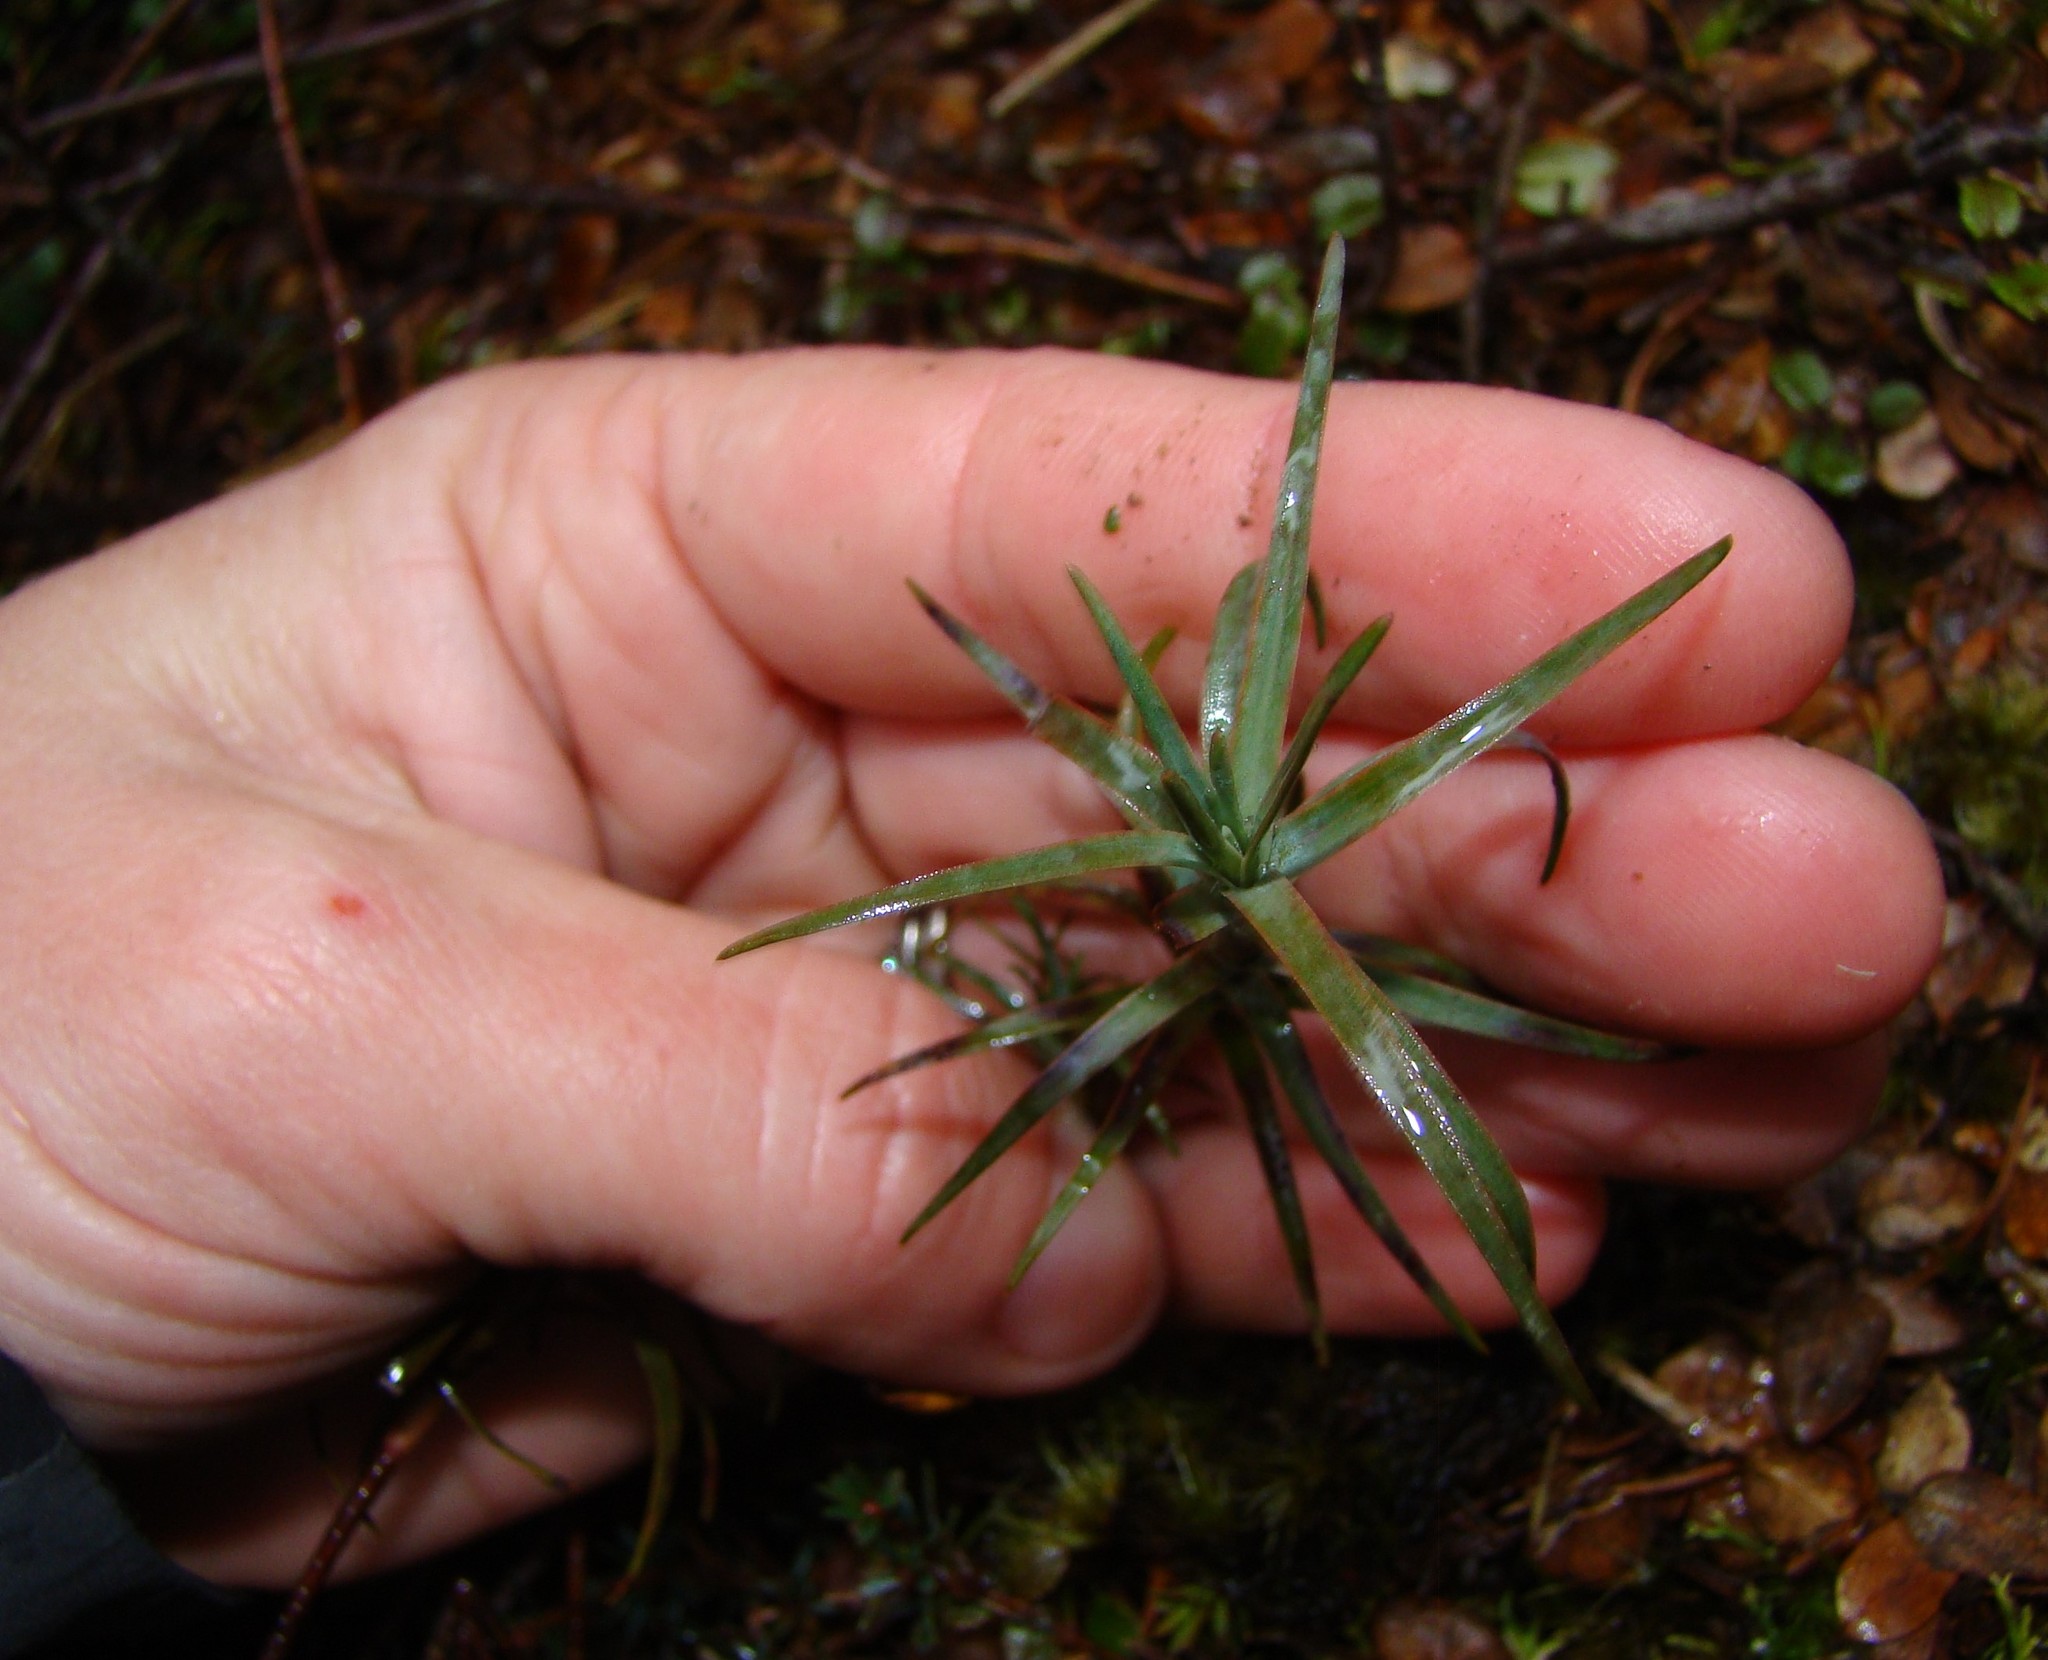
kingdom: Plantae
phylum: Tracheophyta
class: Magnoliopsida
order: Ericales
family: Ericaceae
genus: Dracophyllum
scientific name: Dracophyllum recurvum
